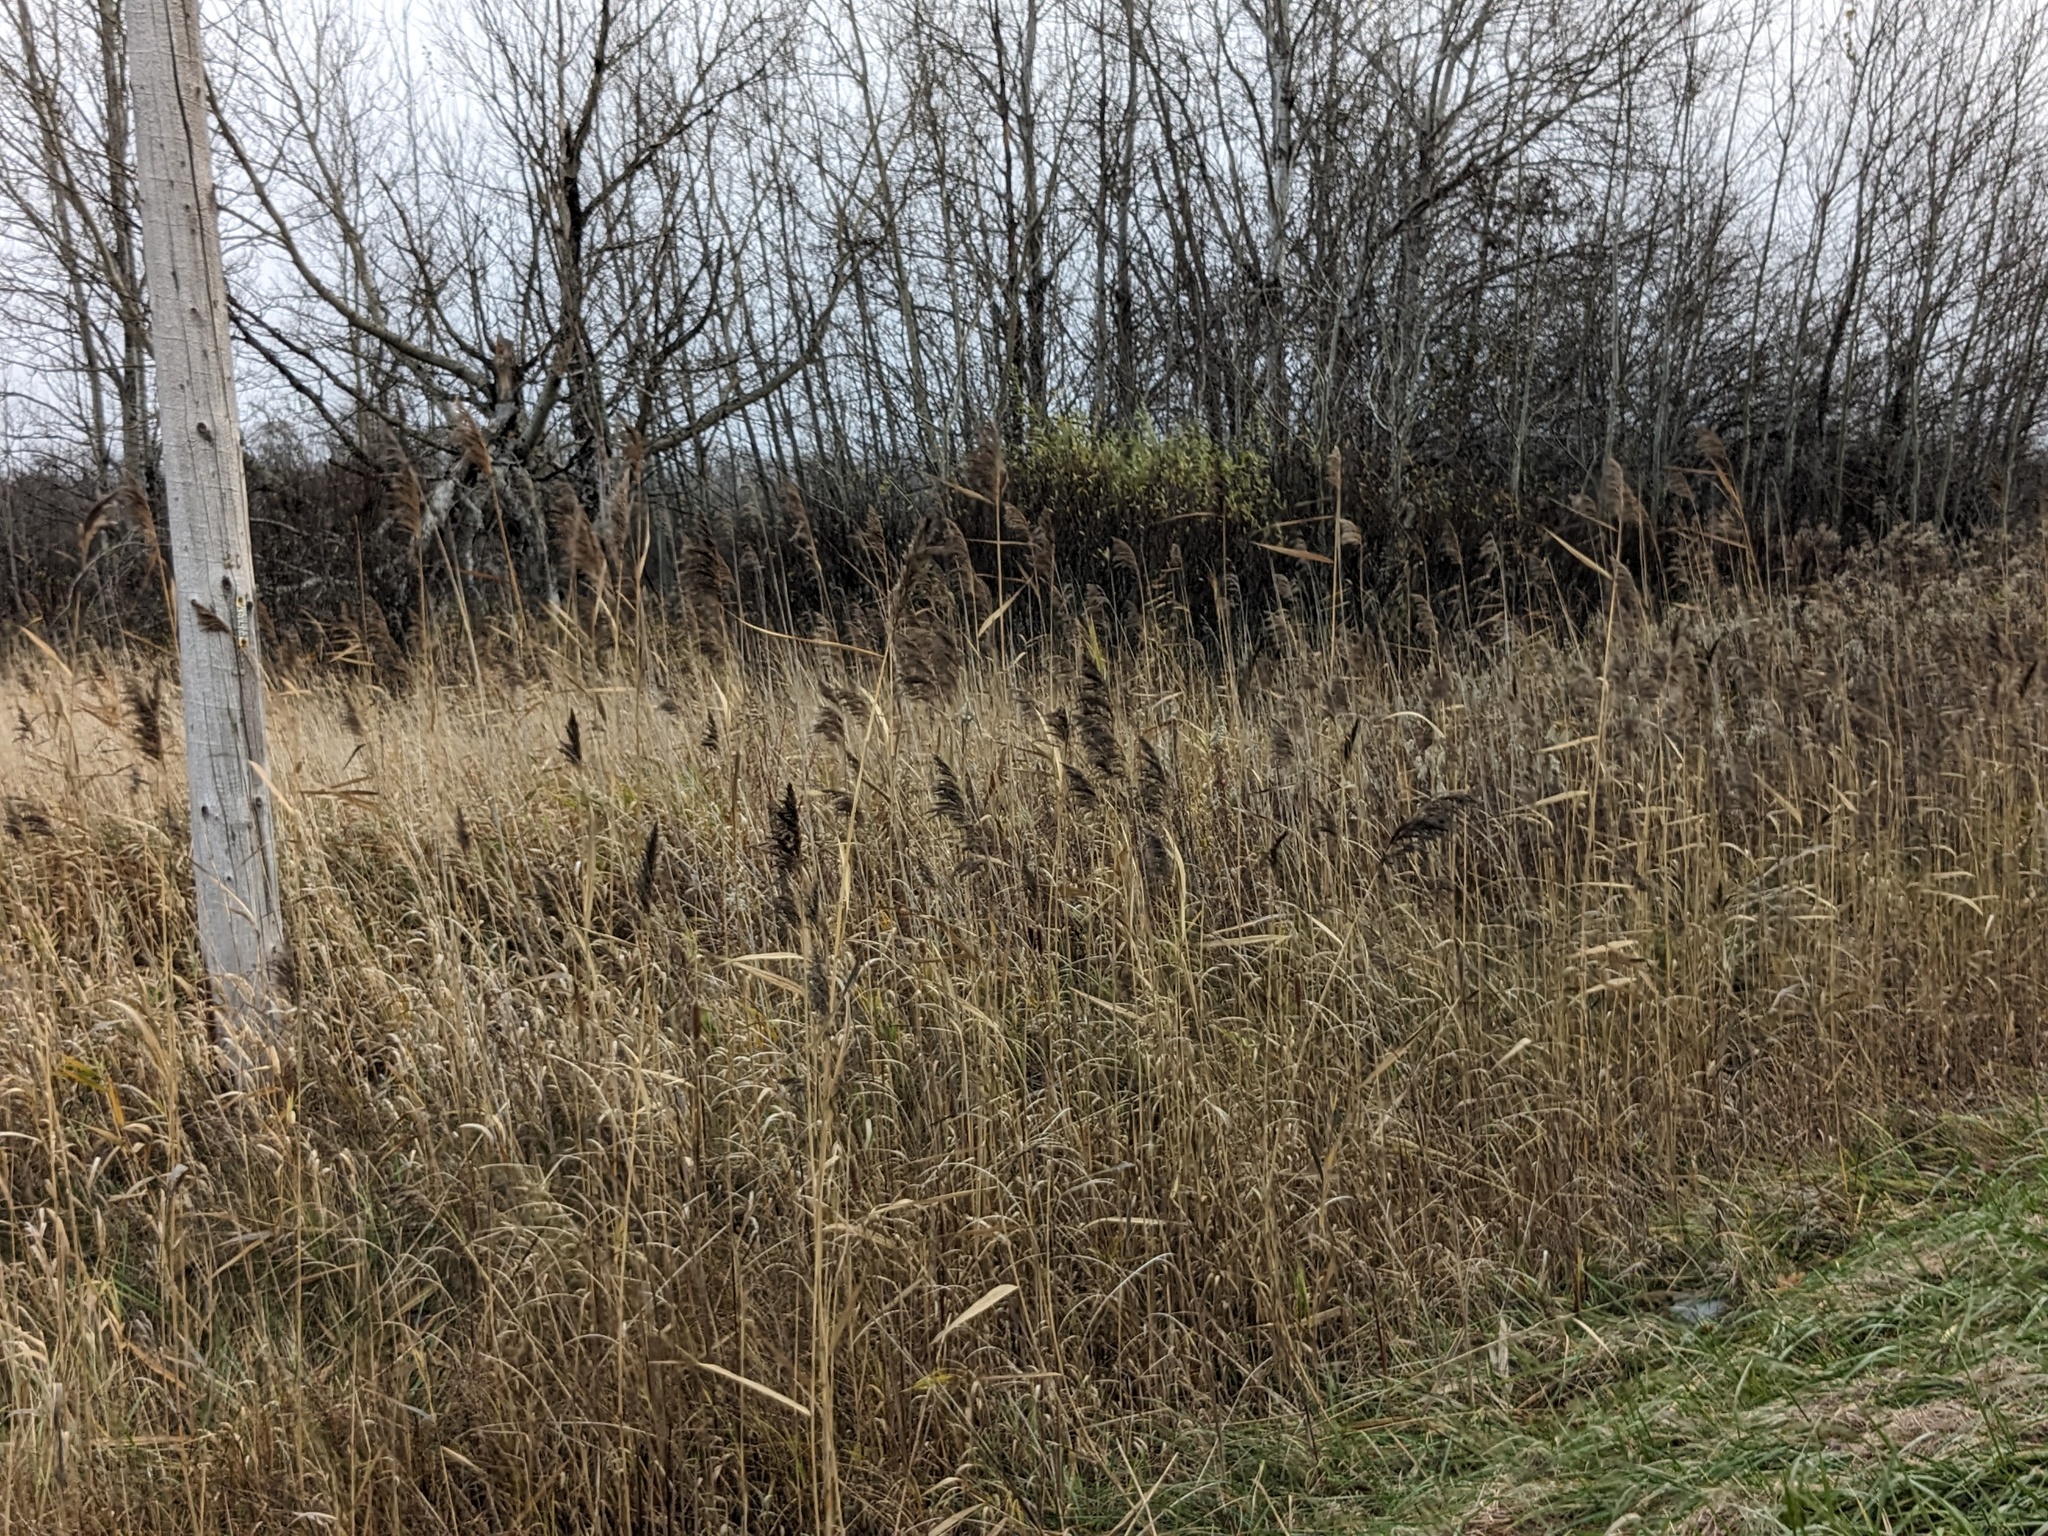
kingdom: Plantae
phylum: Tracheophyta
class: Liliopsida
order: Poales
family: Poaceae
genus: Phragmites
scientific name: Phragmites australis
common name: Common reed
